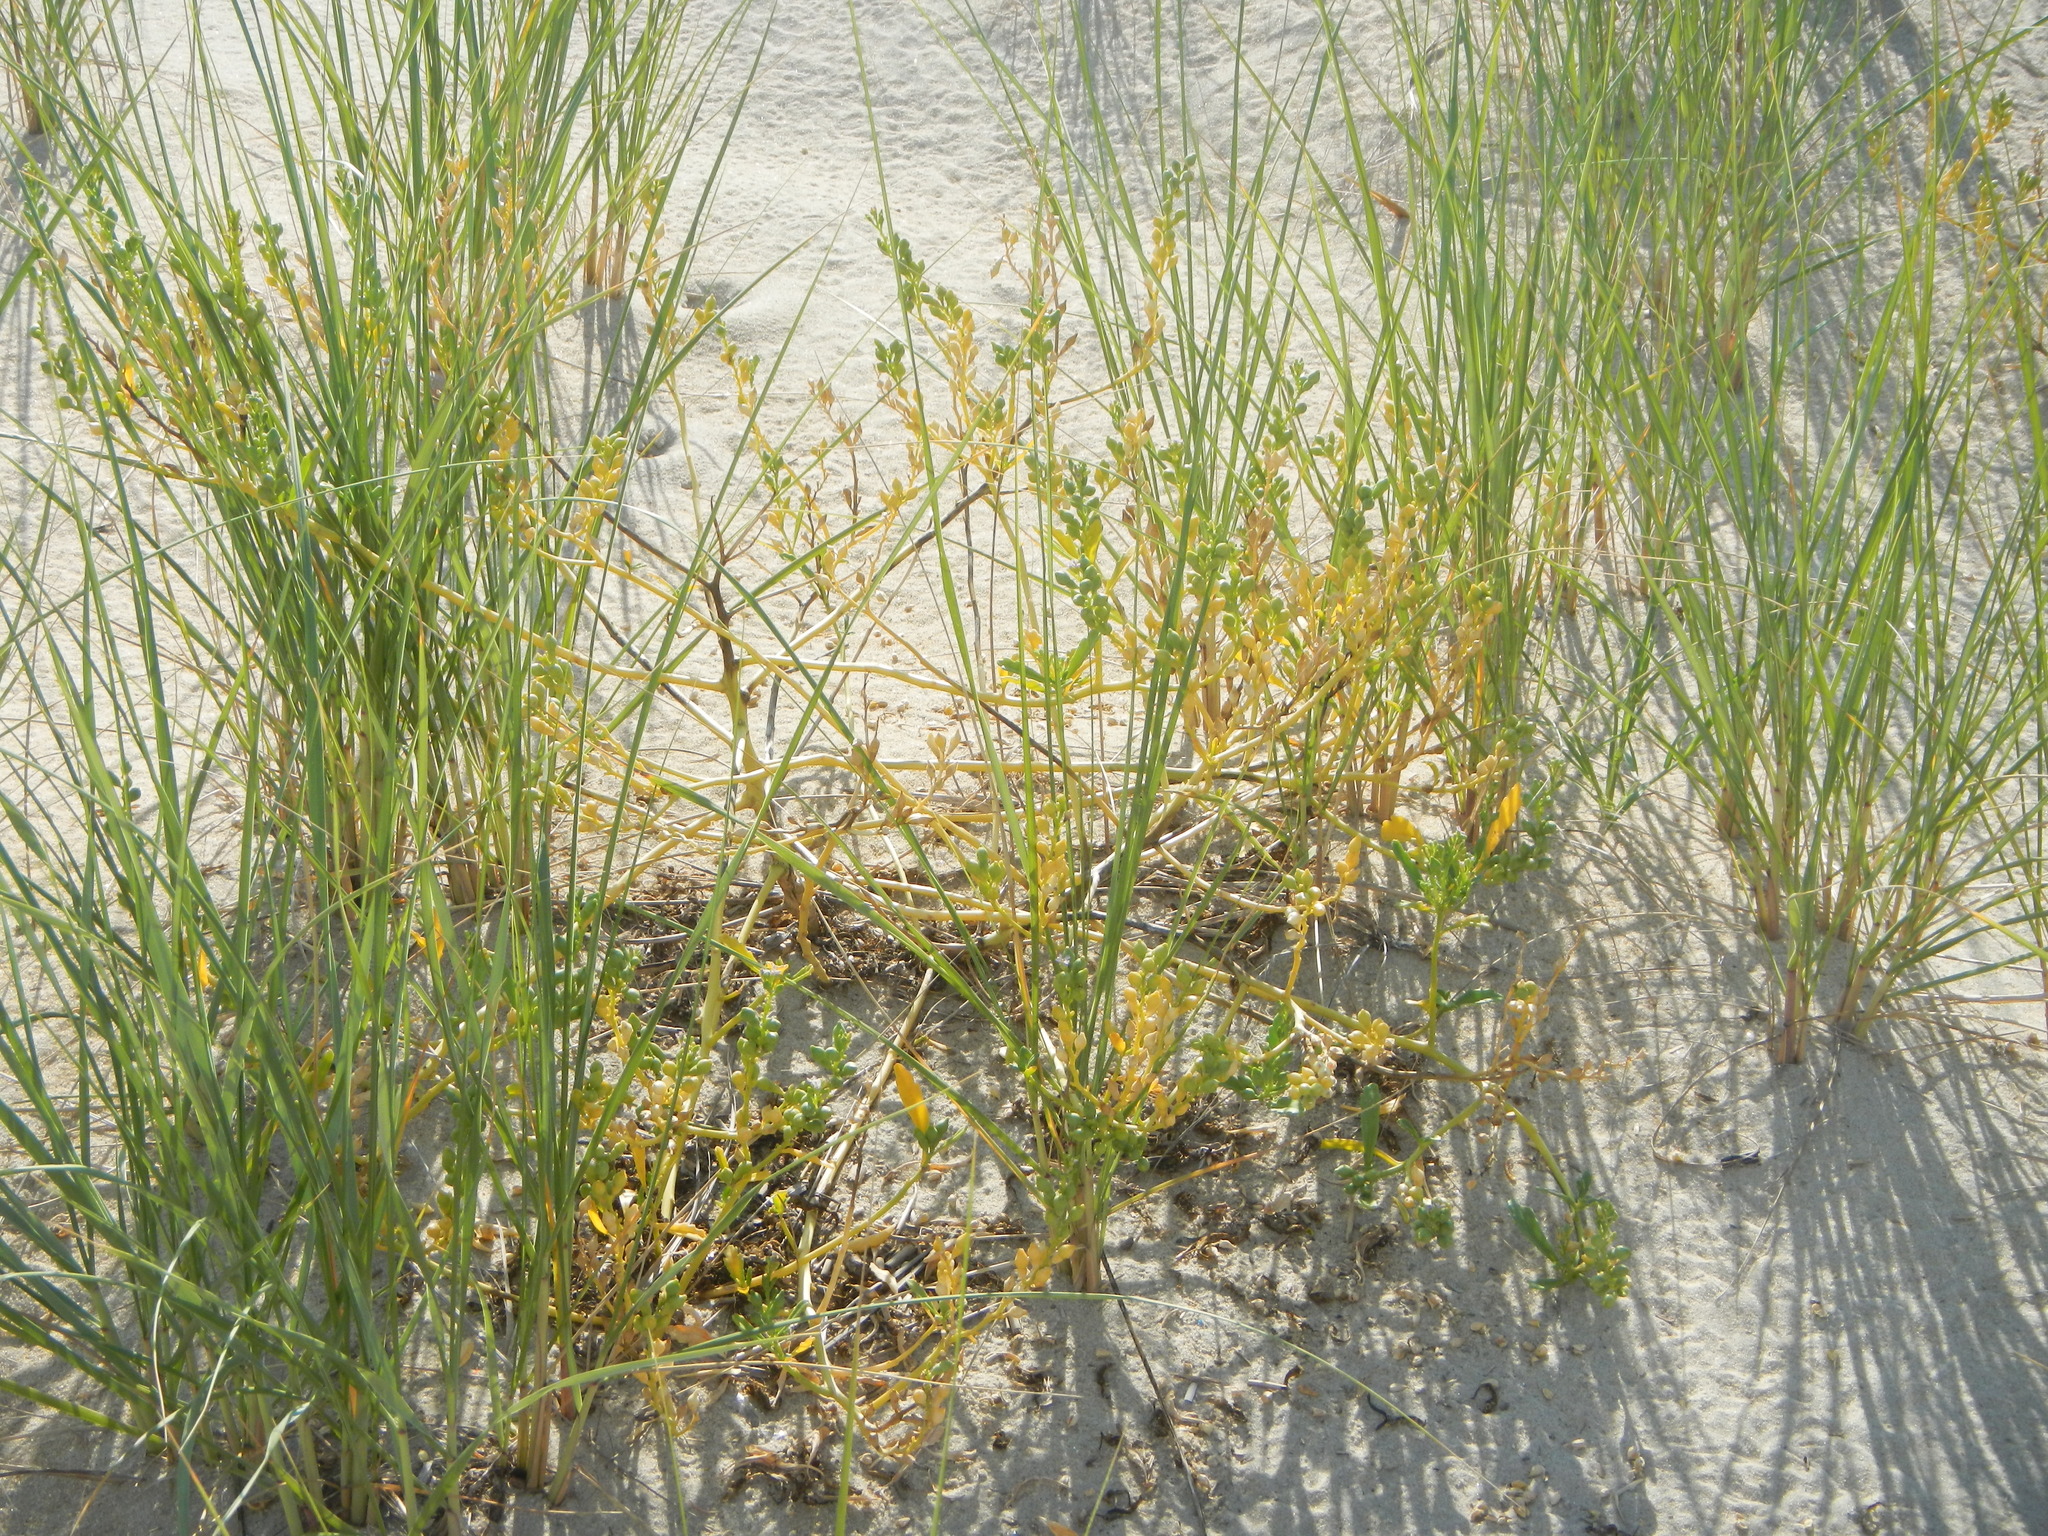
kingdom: Plantae
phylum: Tracheophyta
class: Magnoliopsida
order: Brassicales
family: Brassicaceae
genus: Cakile
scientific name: Cakile edentula
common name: American sea rocket
